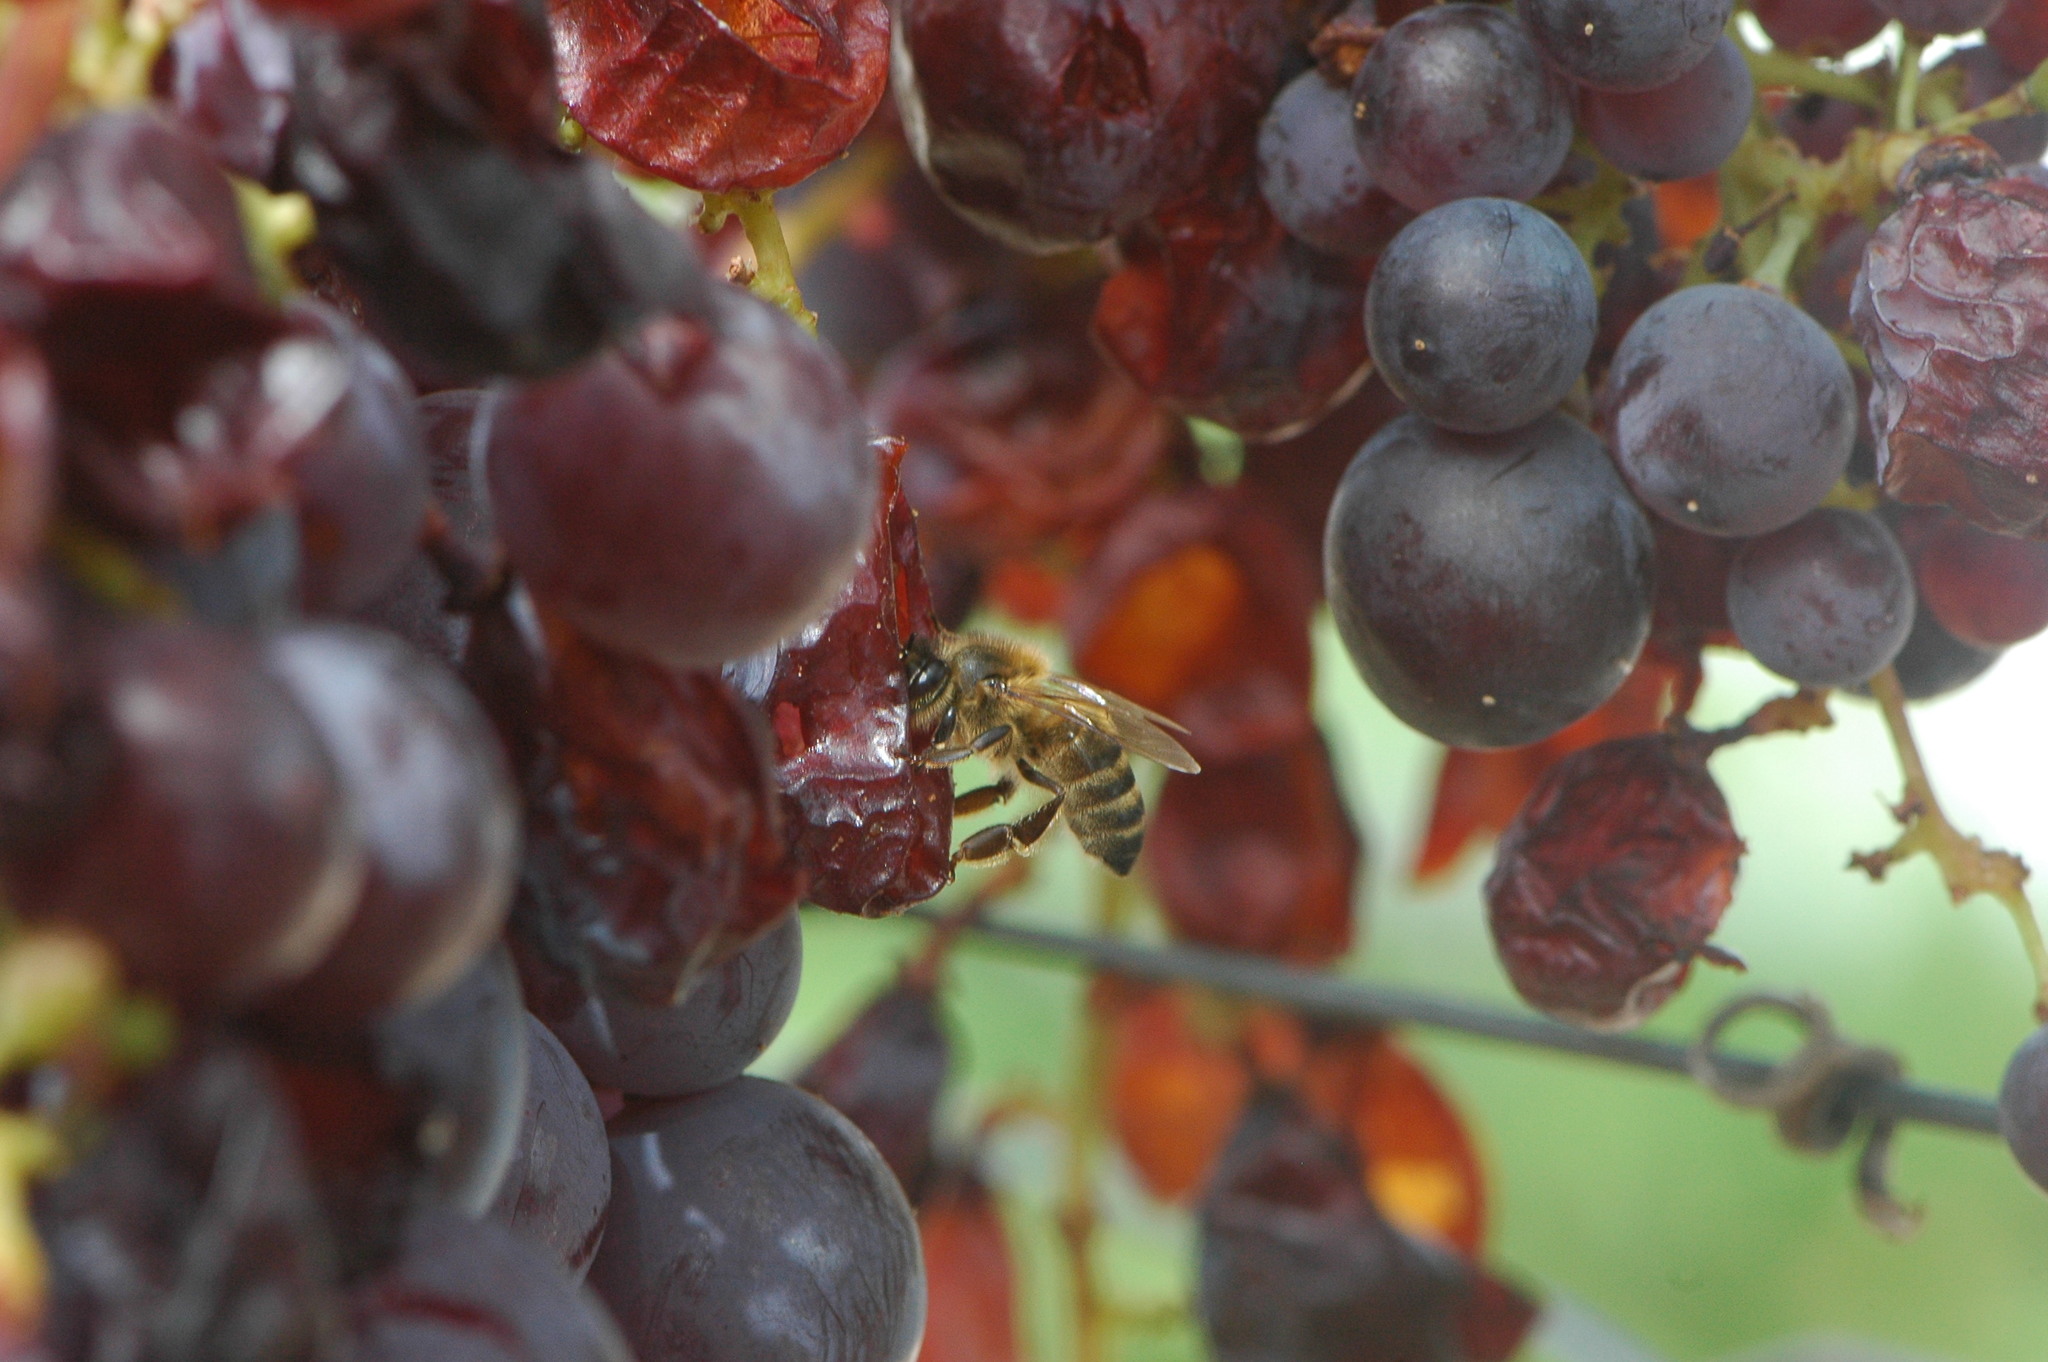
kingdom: Animalia
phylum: Arthropoda
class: Insecta
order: Hymenoptera
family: Apidae
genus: Apis
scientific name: Apis mellifera
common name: Honey bee
